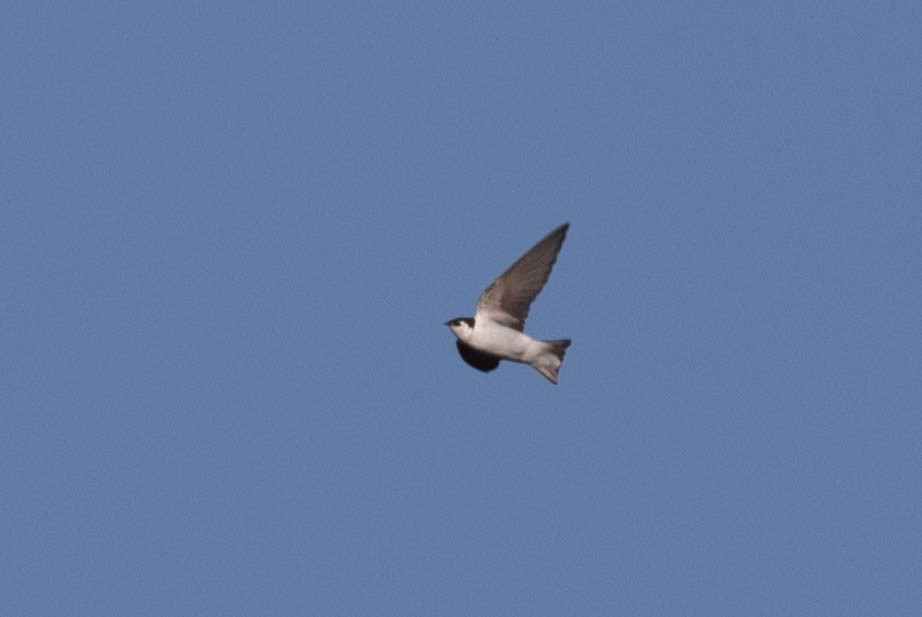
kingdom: Animalia
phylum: Chordata
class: Aves
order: Passeriformes
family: Hirundinidae
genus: Tachycineta
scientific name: Tachycineta thalassina
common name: Violet-green swallow
